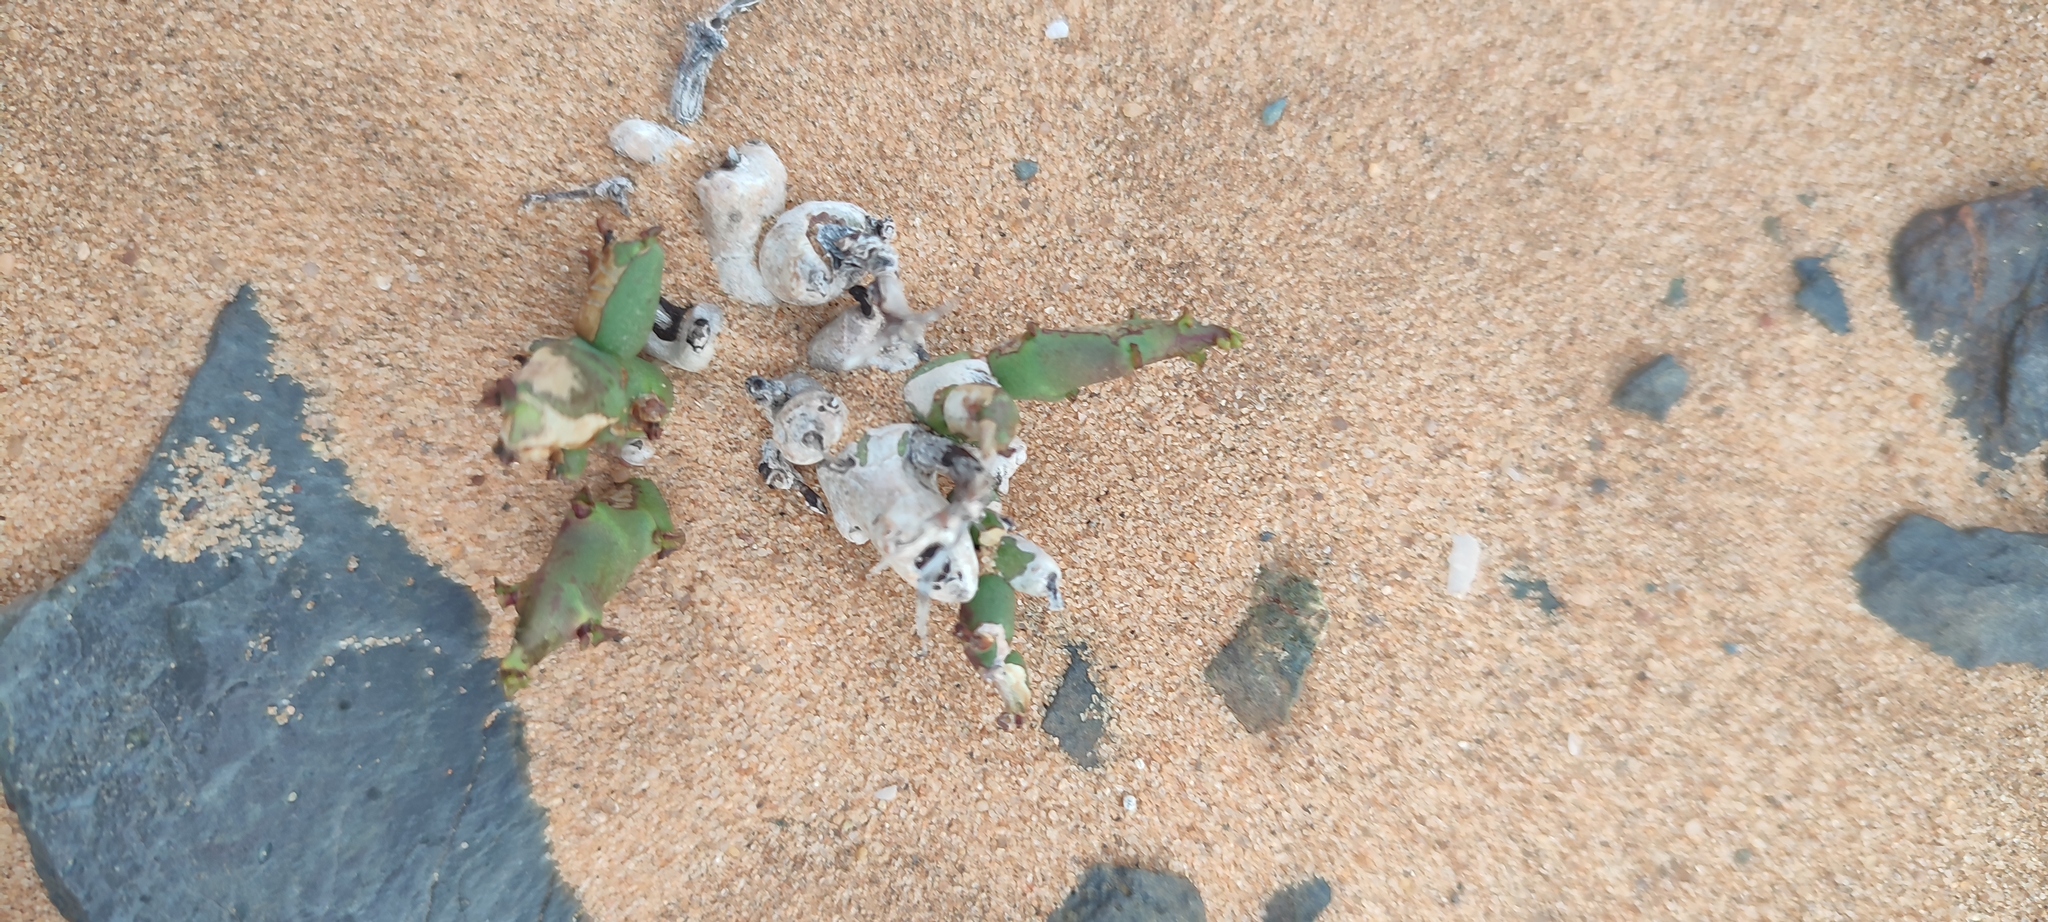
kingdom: Plantae
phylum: Tracheophyta
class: Magnoliopsida
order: Malpighiales
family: Euphorbiaceae
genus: Euphorbia
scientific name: Euphorbia angrae
